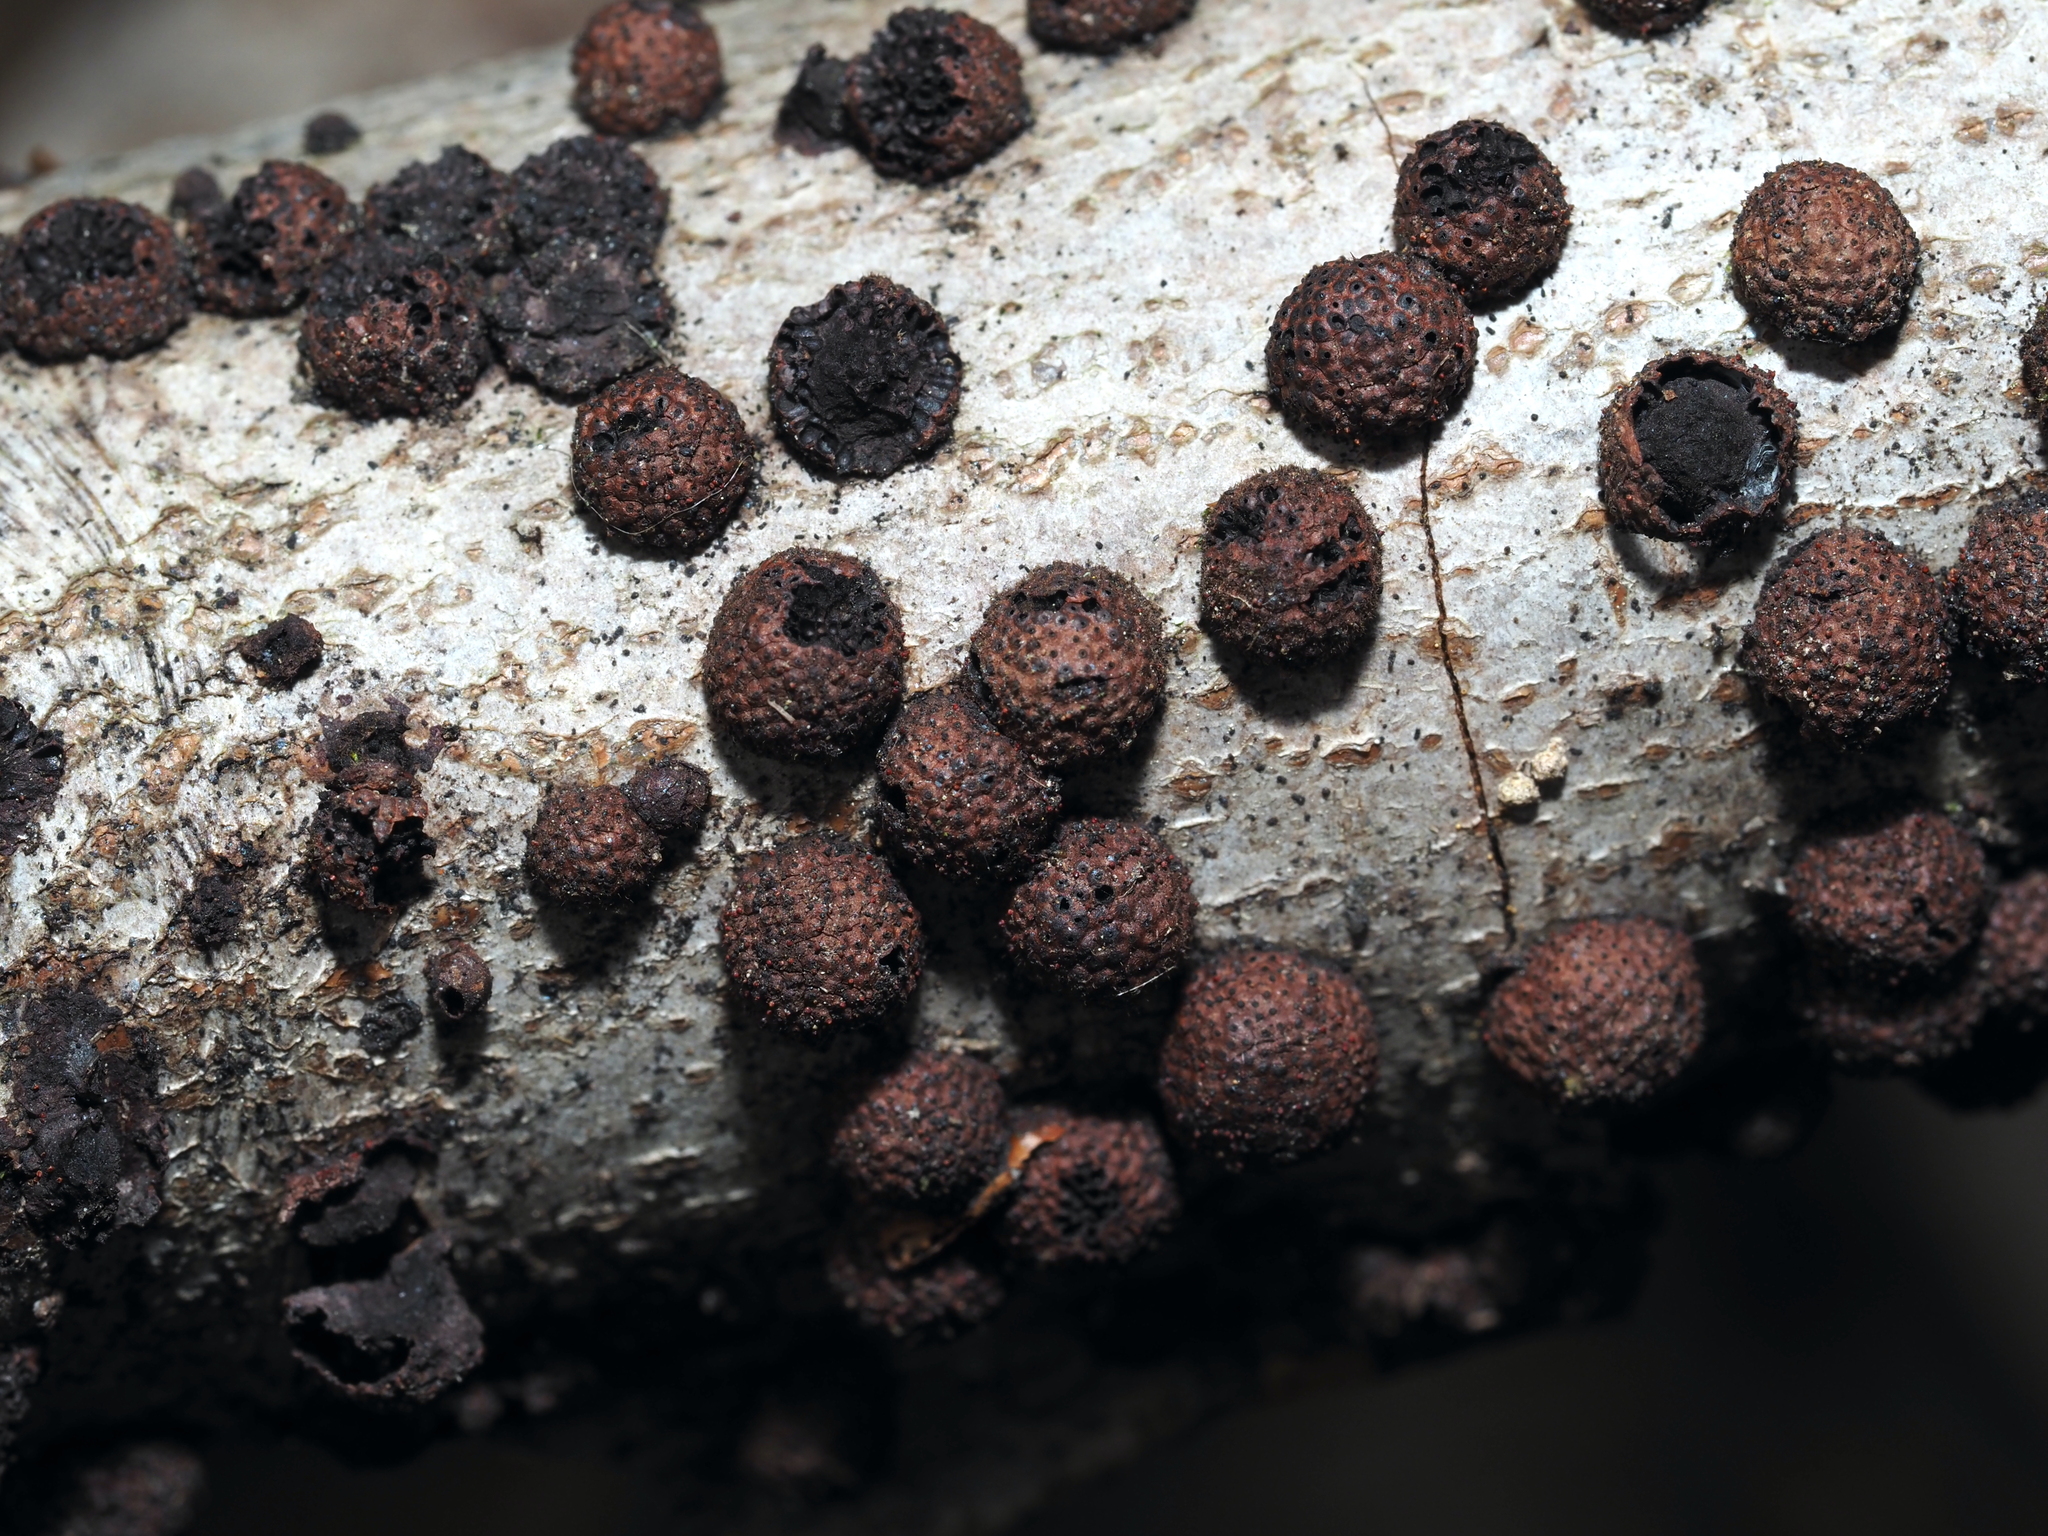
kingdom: Fungi
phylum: Ascomycota
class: Sordariomycetes
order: Xylariales
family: Hypoxylaceae
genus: Hypoxylon
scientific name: Hypoxylon fragiforme
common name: Beech woodwart
